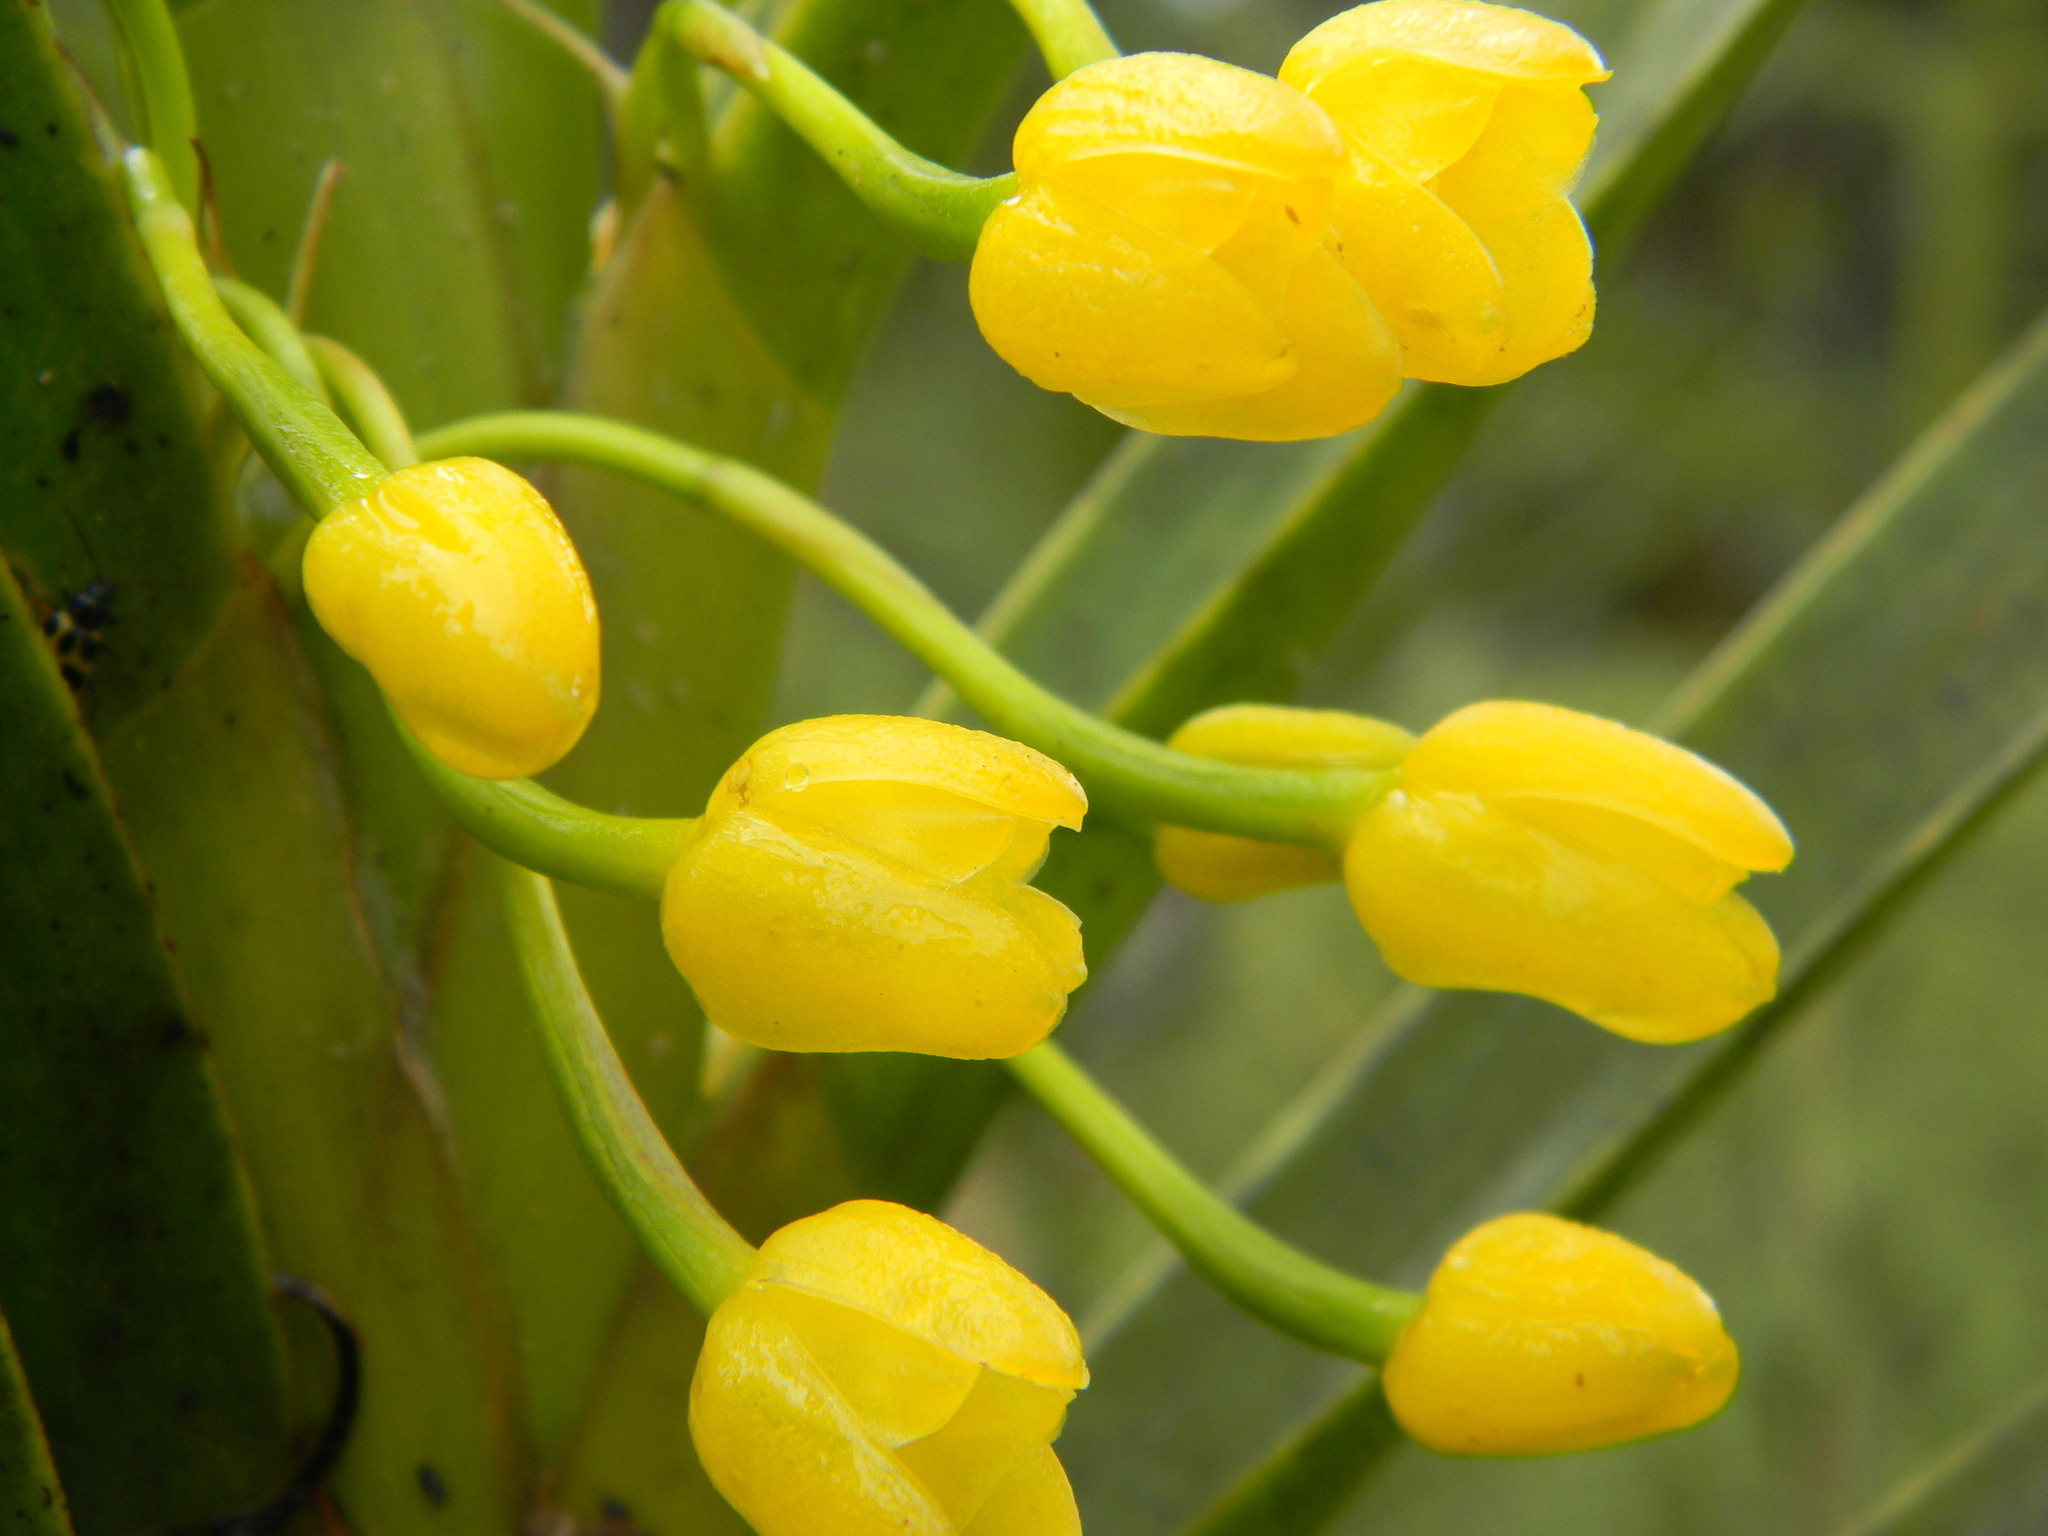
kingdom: Plantae
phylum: Tracheophyta
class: Liliopsida
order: Asparagales
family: Orchidaceae
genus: Maxillaria
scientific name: Maxillaria aurea
